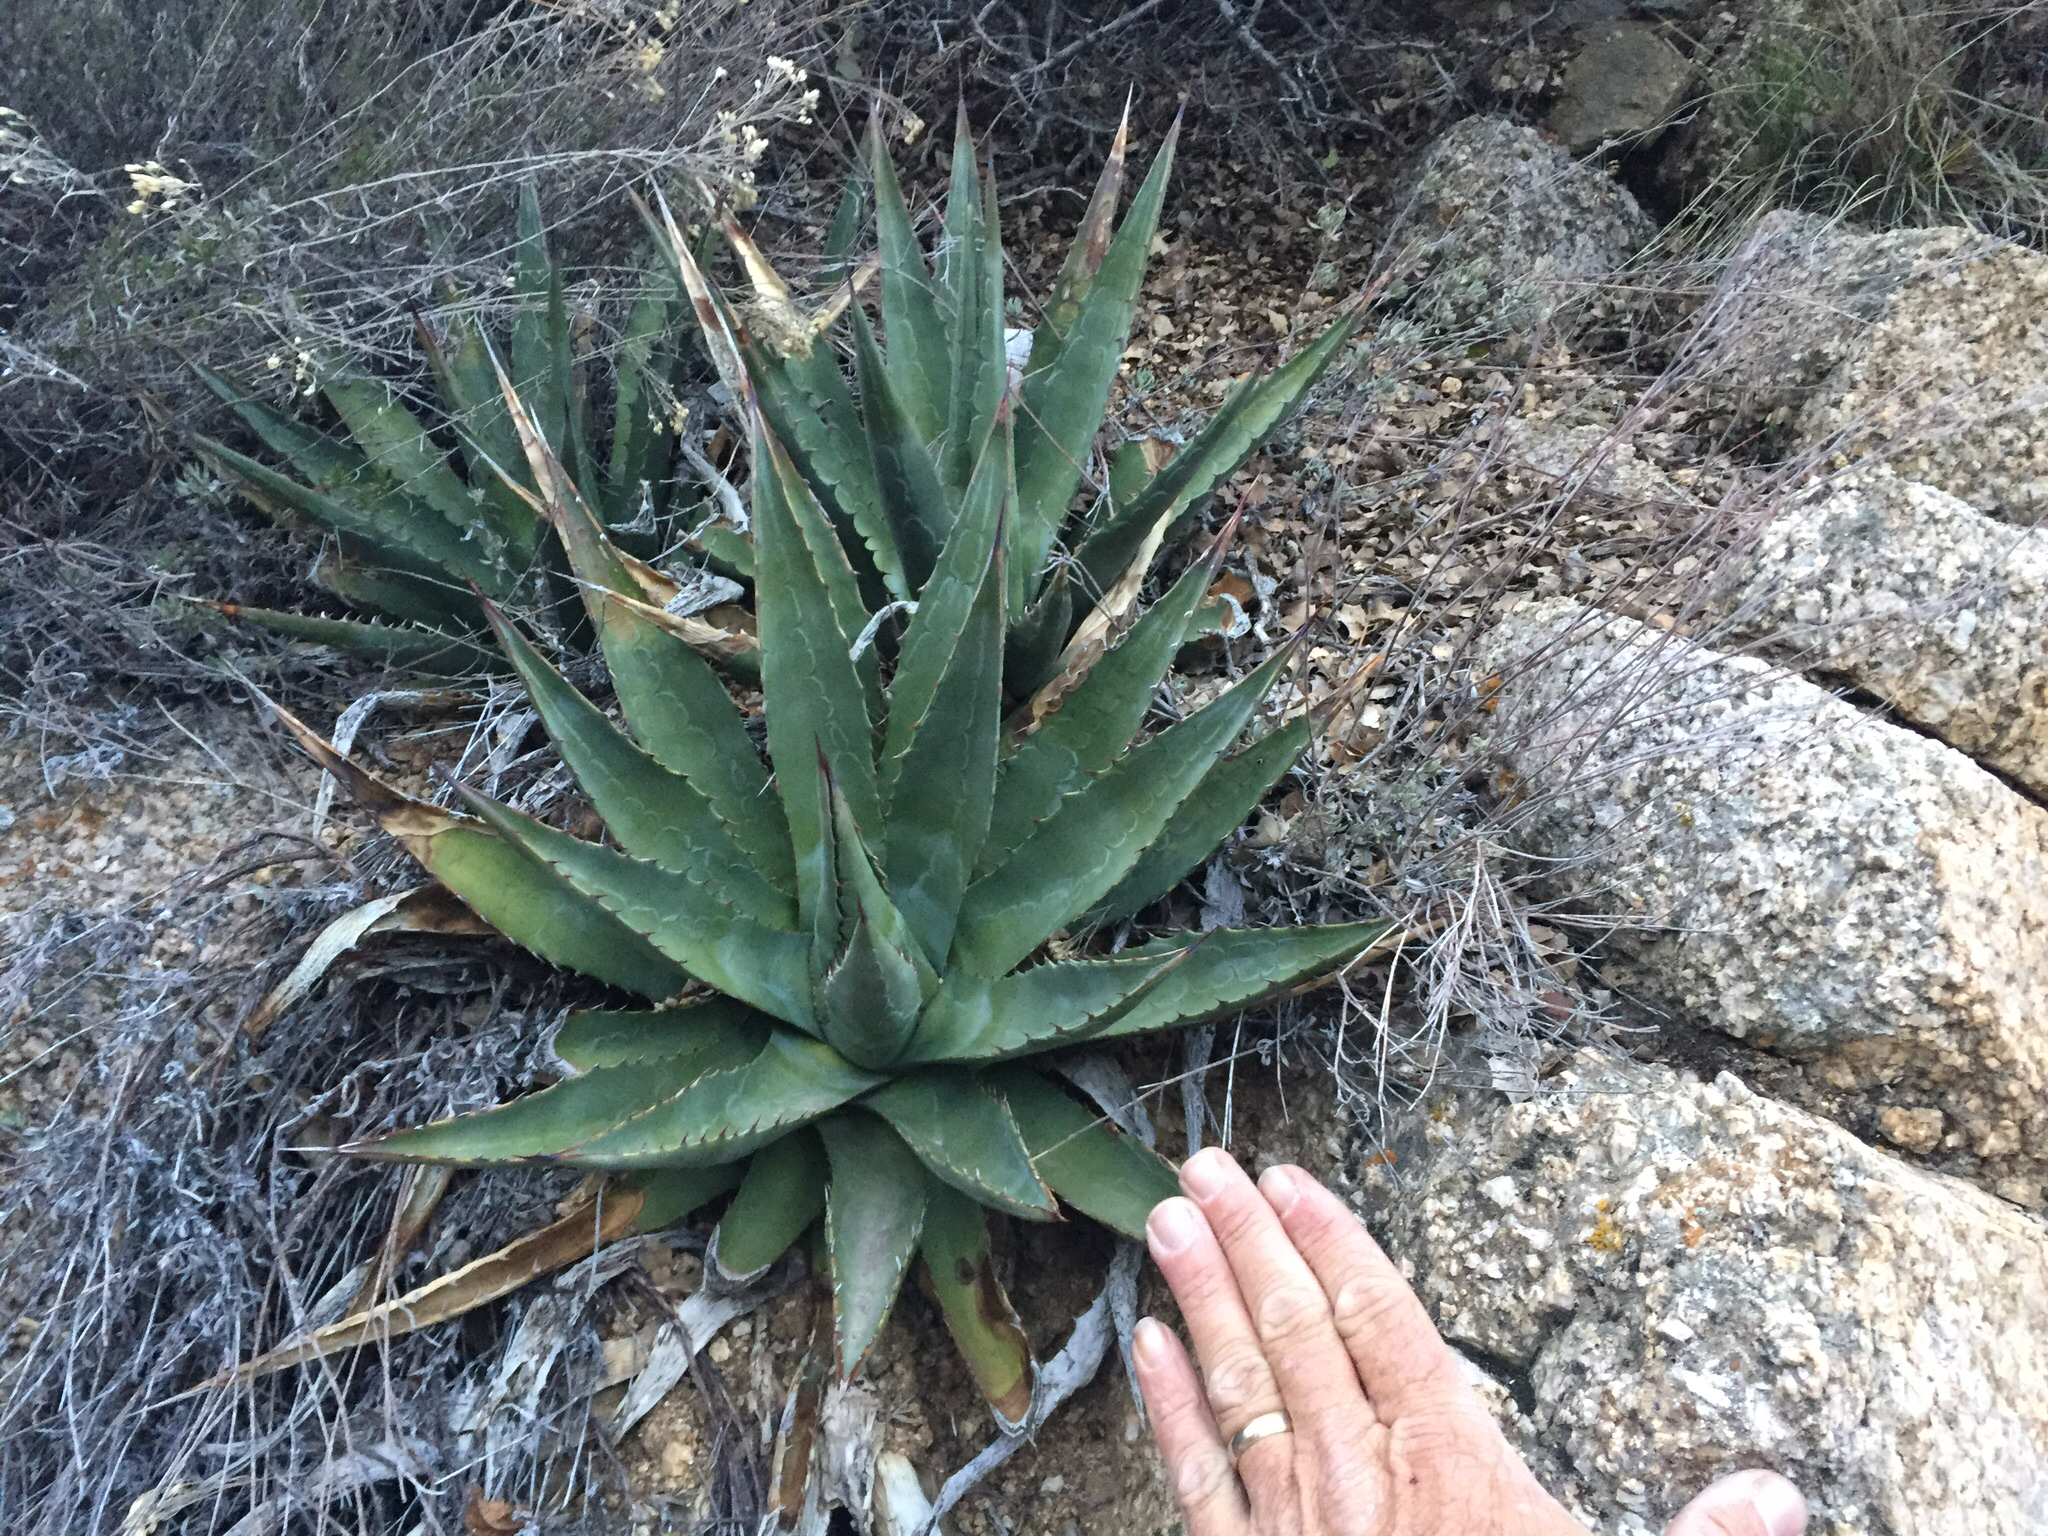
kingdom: Plantae
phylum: Tracheophyta
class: Liliopsida
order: Asparagales
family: Asparagaceae
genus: Agave
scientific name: Agave mckelveyana
